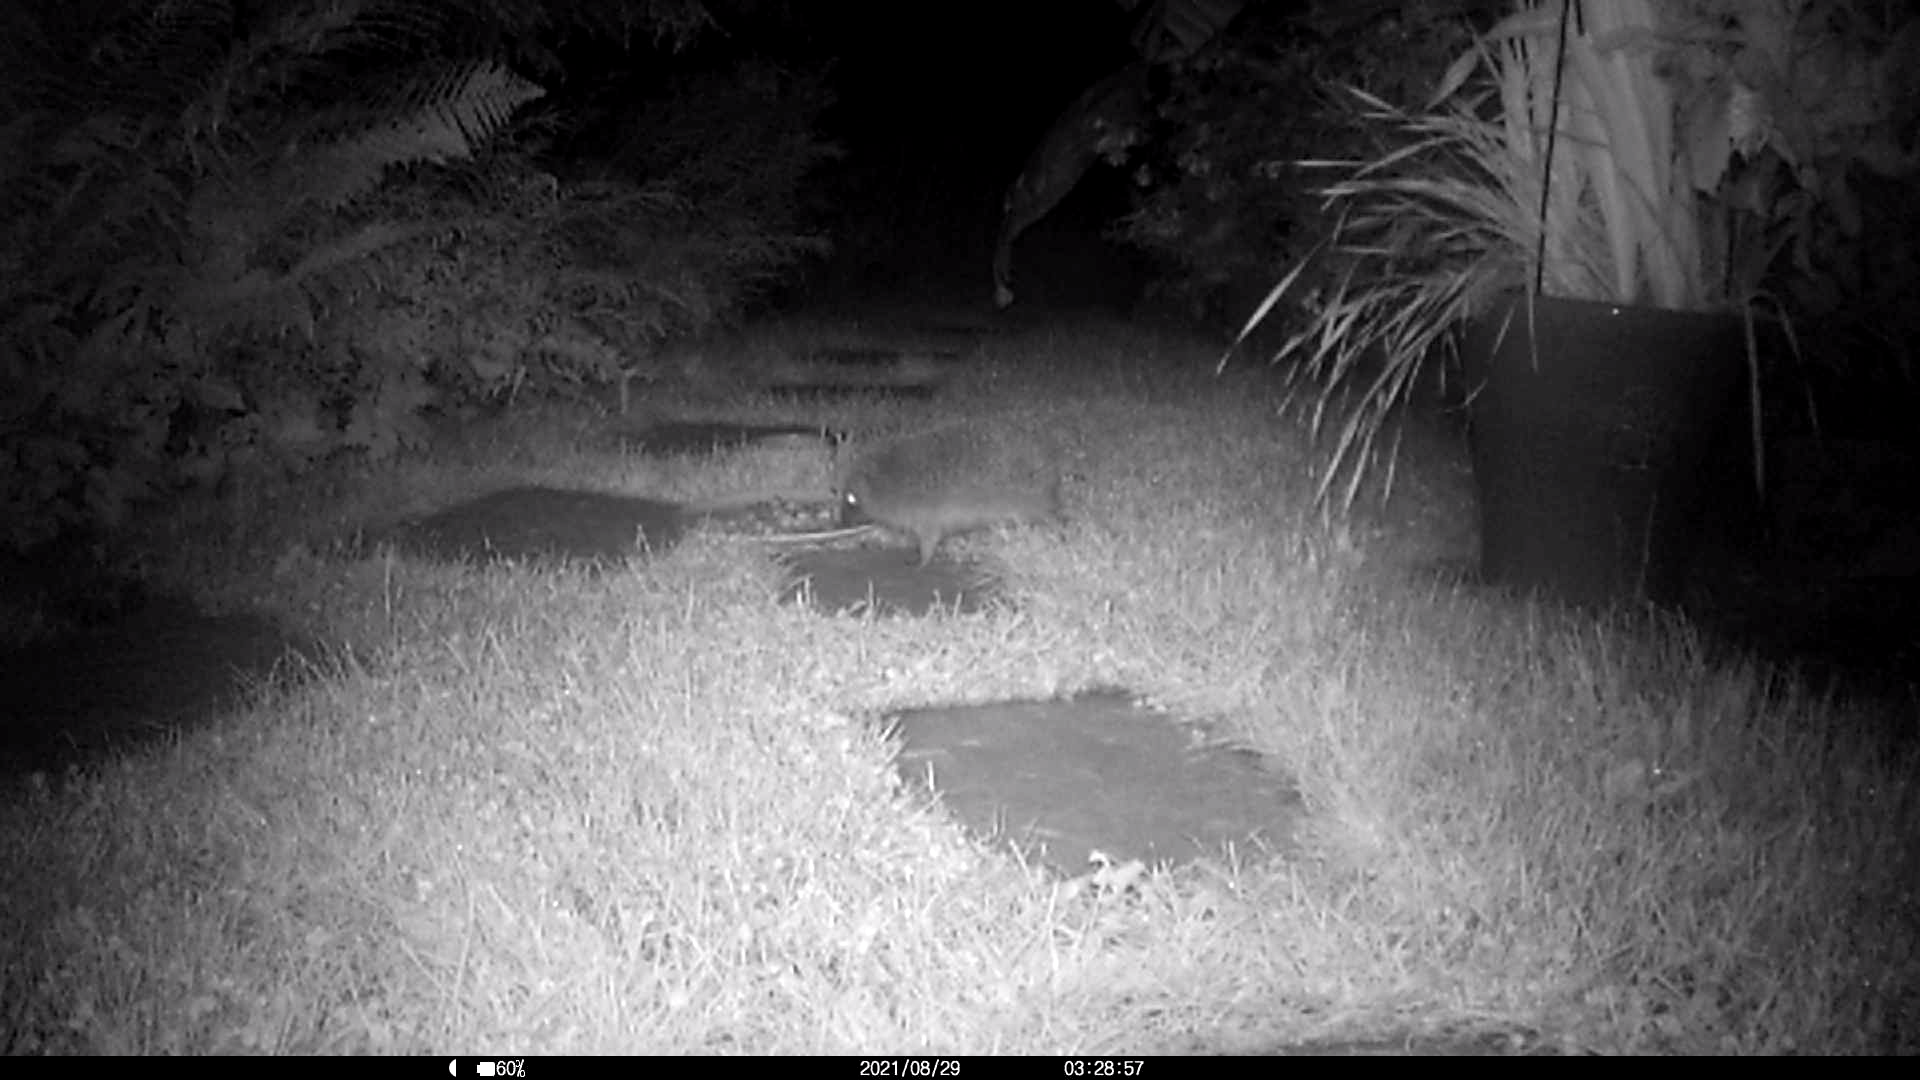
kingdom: Animalia
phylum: Chordata
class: Mammalia
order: Erinaceomorpha
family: Erinaceidae
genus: Erinaceus
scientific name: Erinaceus europaeus
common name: West european hedgehog
